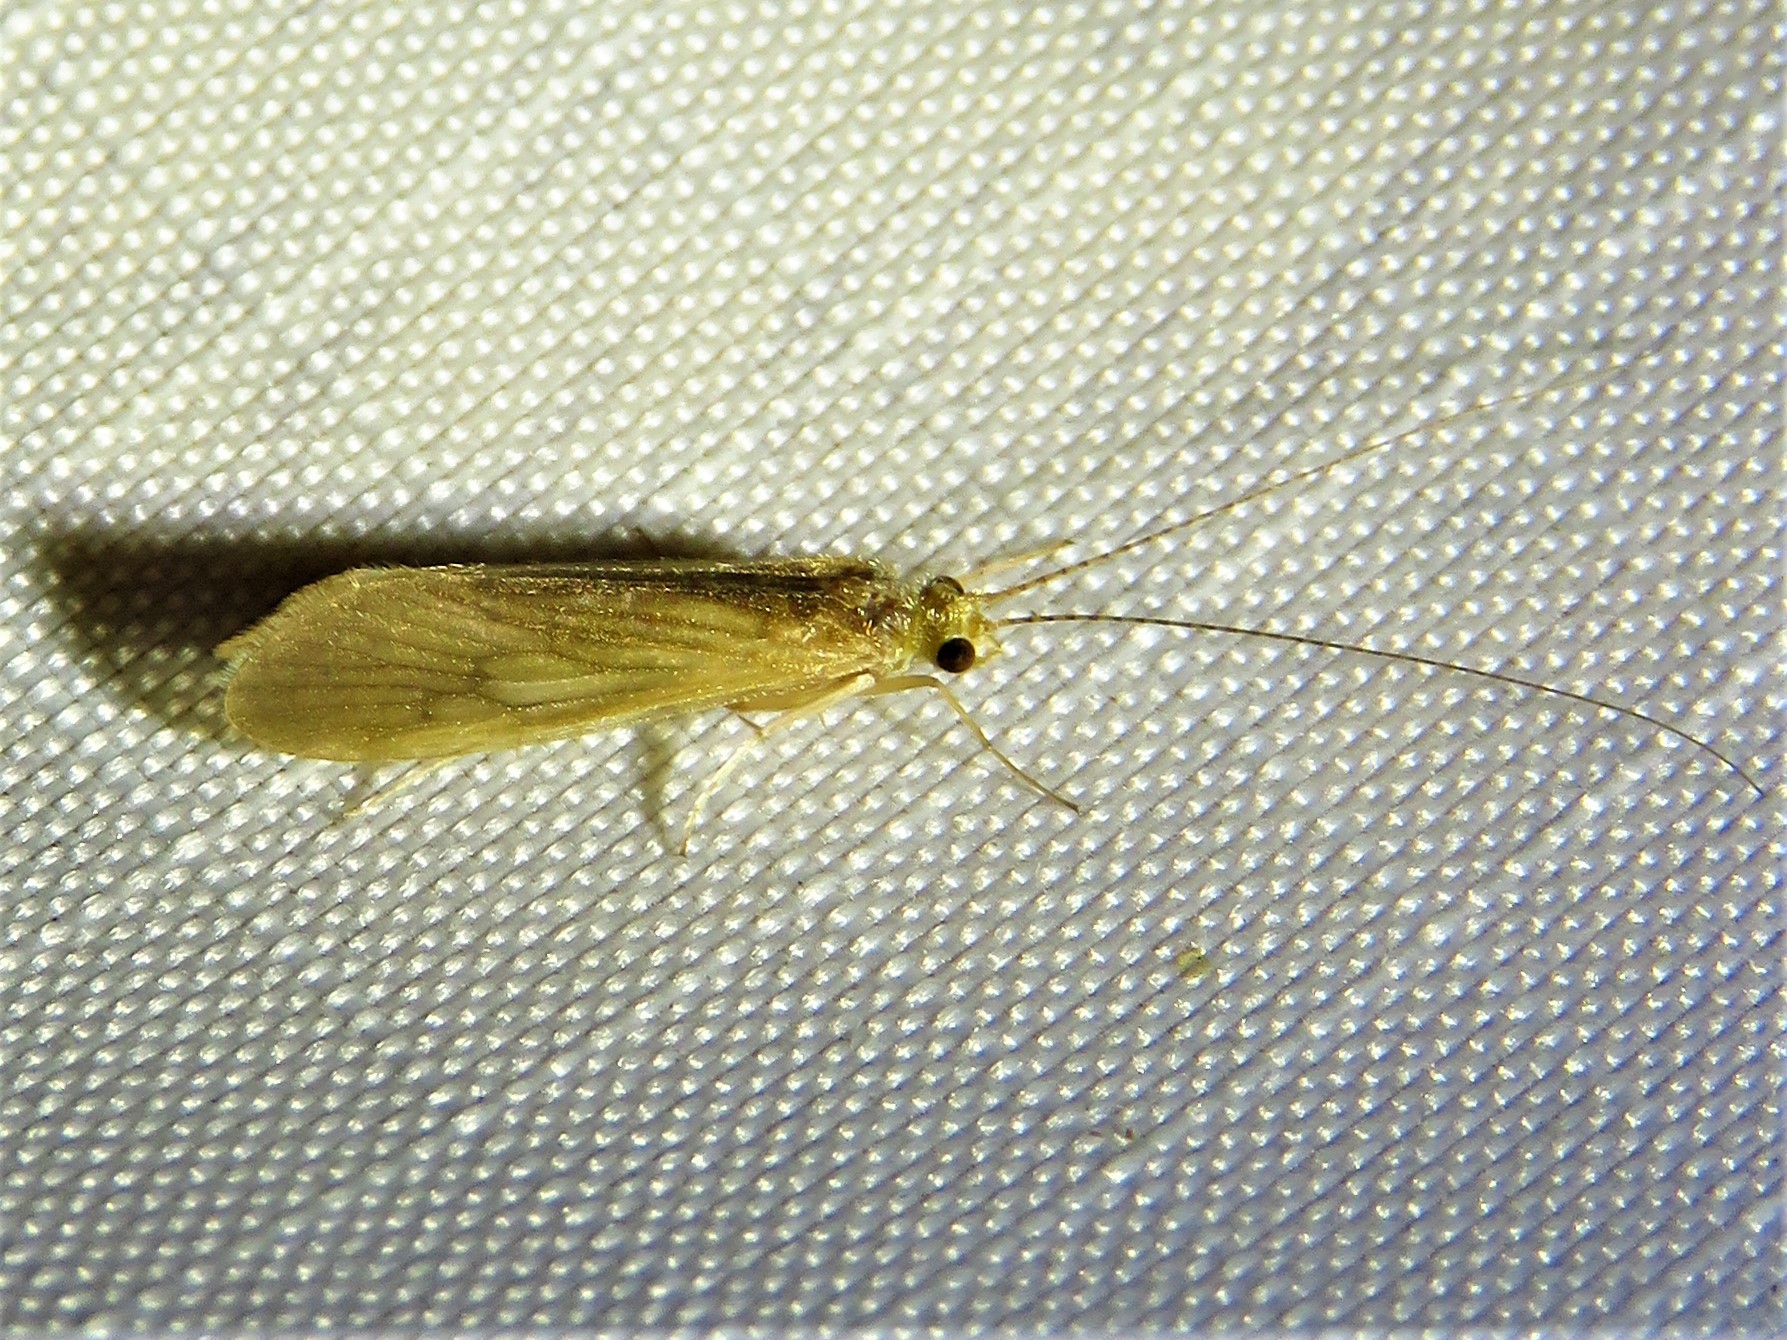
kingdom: Animalia
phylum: Arthropoda
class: Insecta
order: Trichoptera
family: Hydropsychidae
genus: Potamyia
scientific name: Potamyia flava
